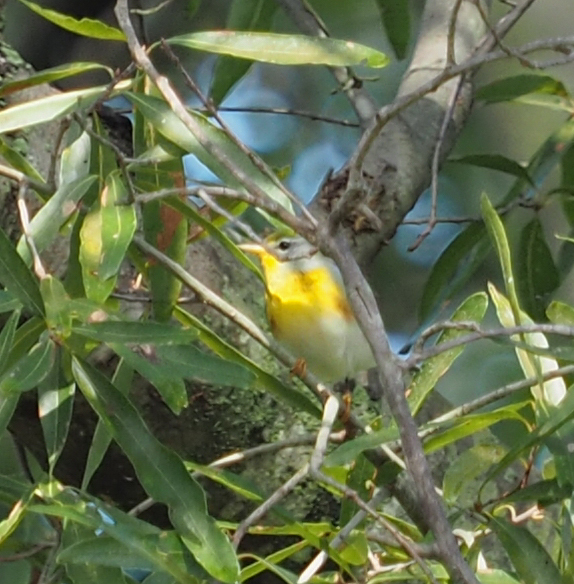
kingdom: Animalia
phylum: Chordata
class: Aves
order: Passeriformes
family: Parulidae
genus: Setophaga
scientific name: Setophaga americana
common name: Northern parula
